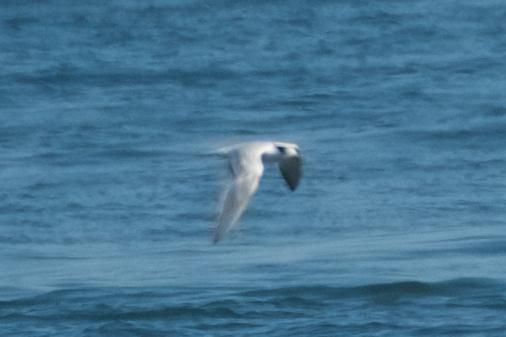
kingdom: Animalia
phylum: Chordata
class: Aves
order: Charadriiformes
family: Laridae
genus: Thalasseus
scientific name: Thalasseus elegans
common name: Elegant tern
